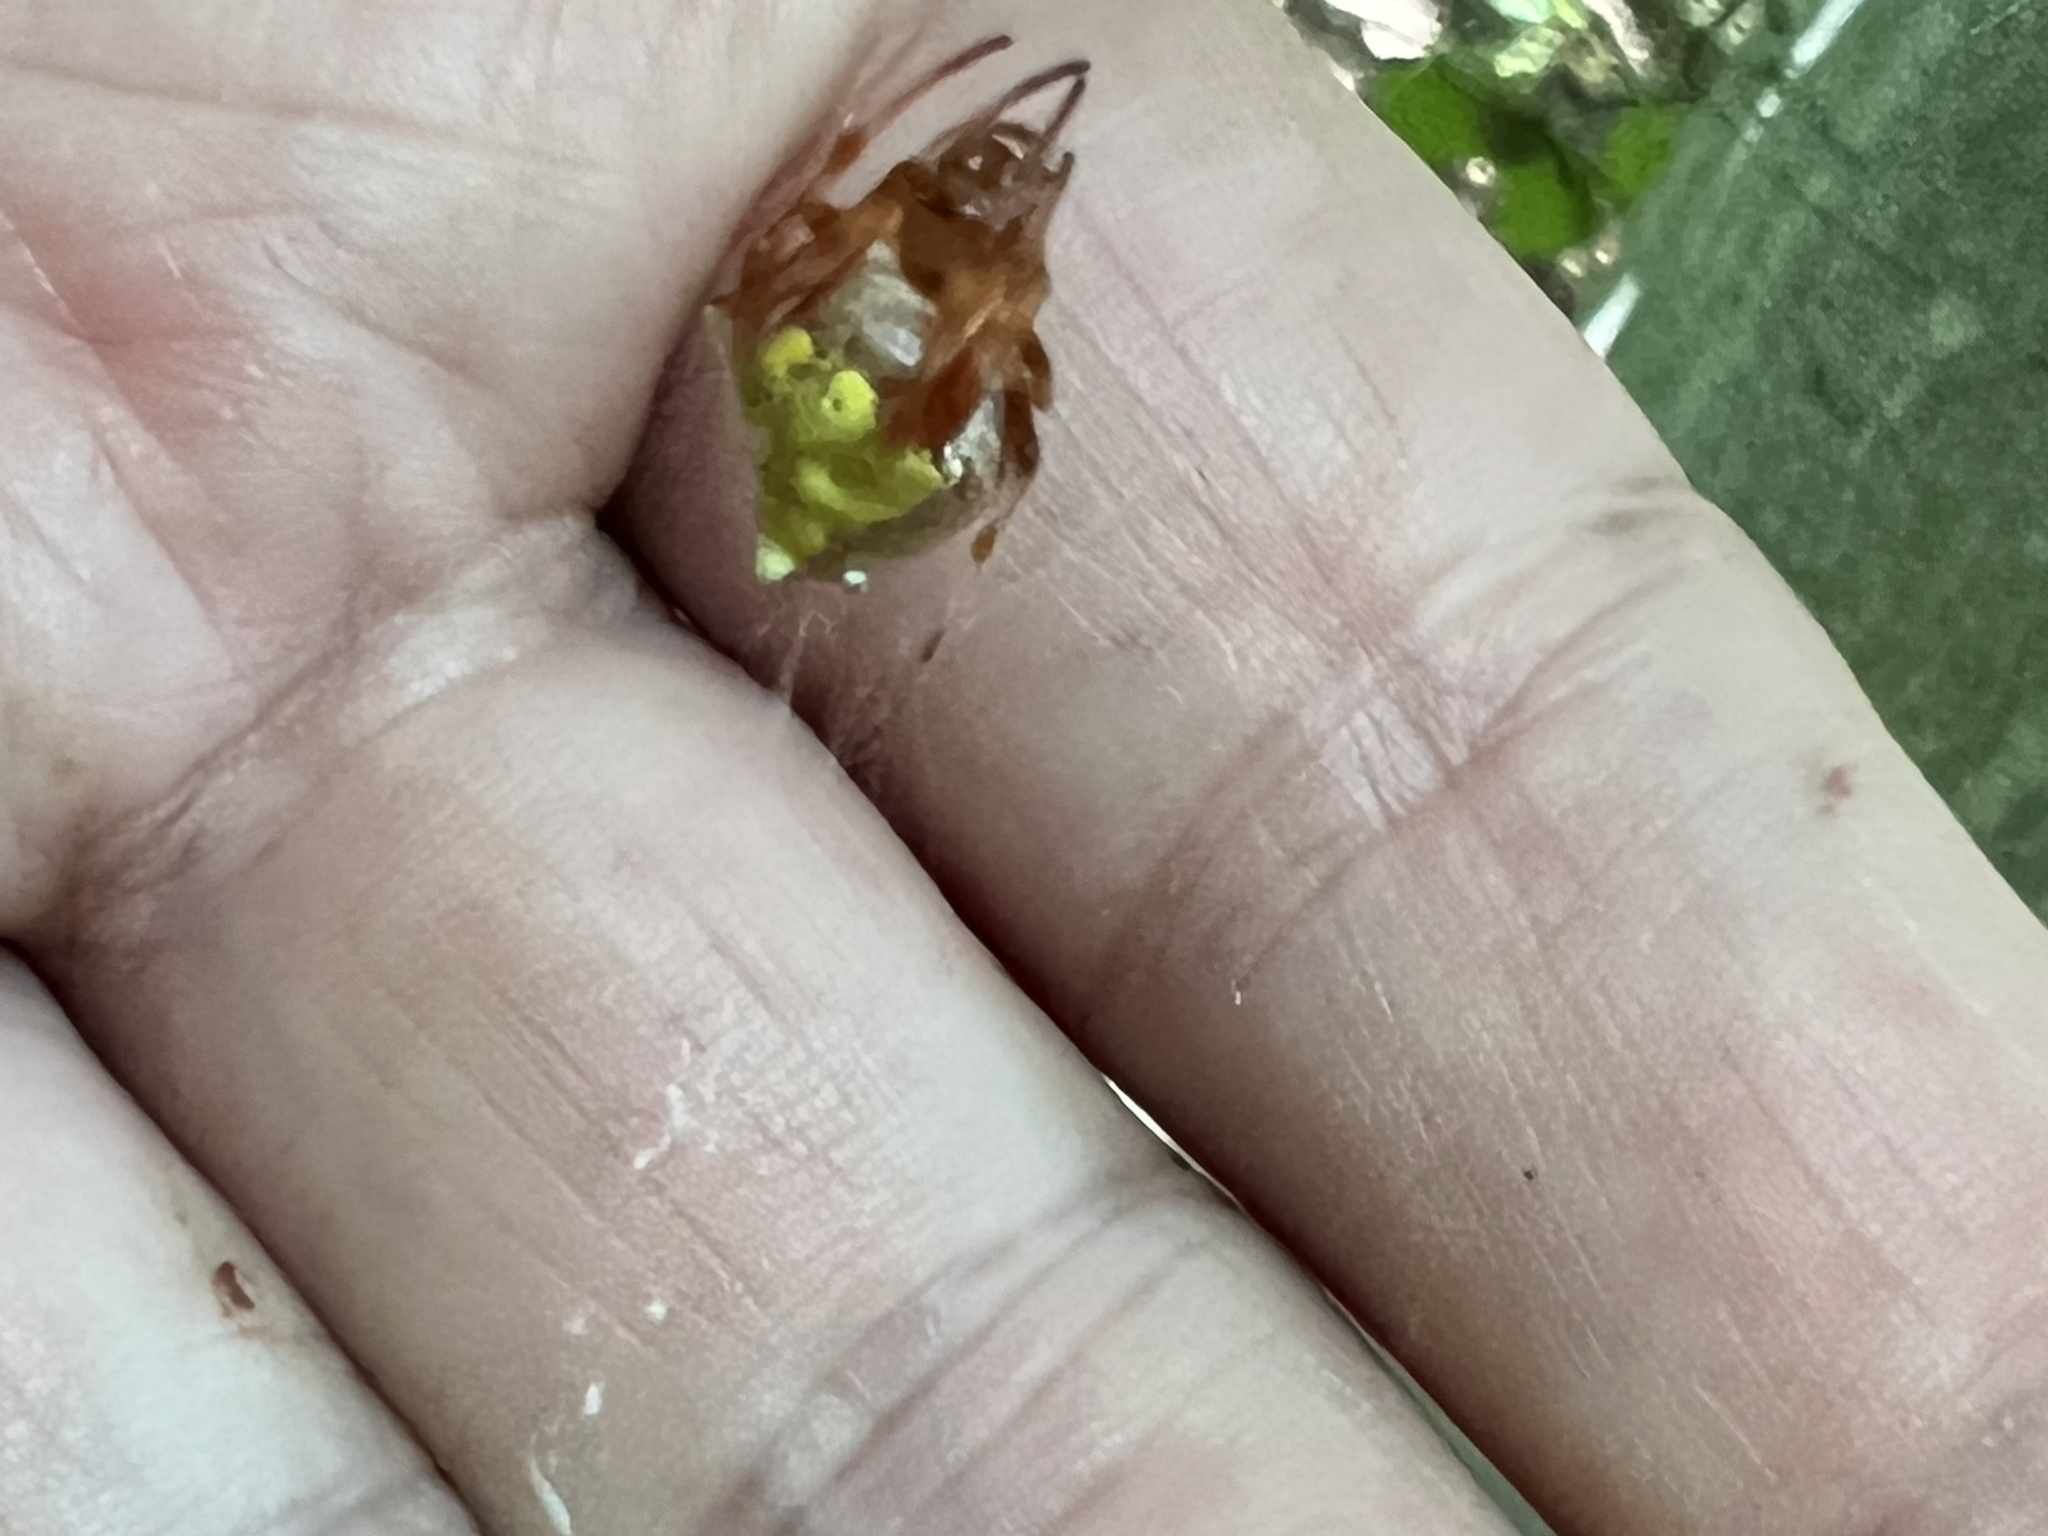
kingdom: Animalia
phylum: Arthropoda
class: Arachnida
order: Araneae
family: Araneidae
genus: Verrucosa
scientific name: Verrucosa arenata
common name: Orb weavers
